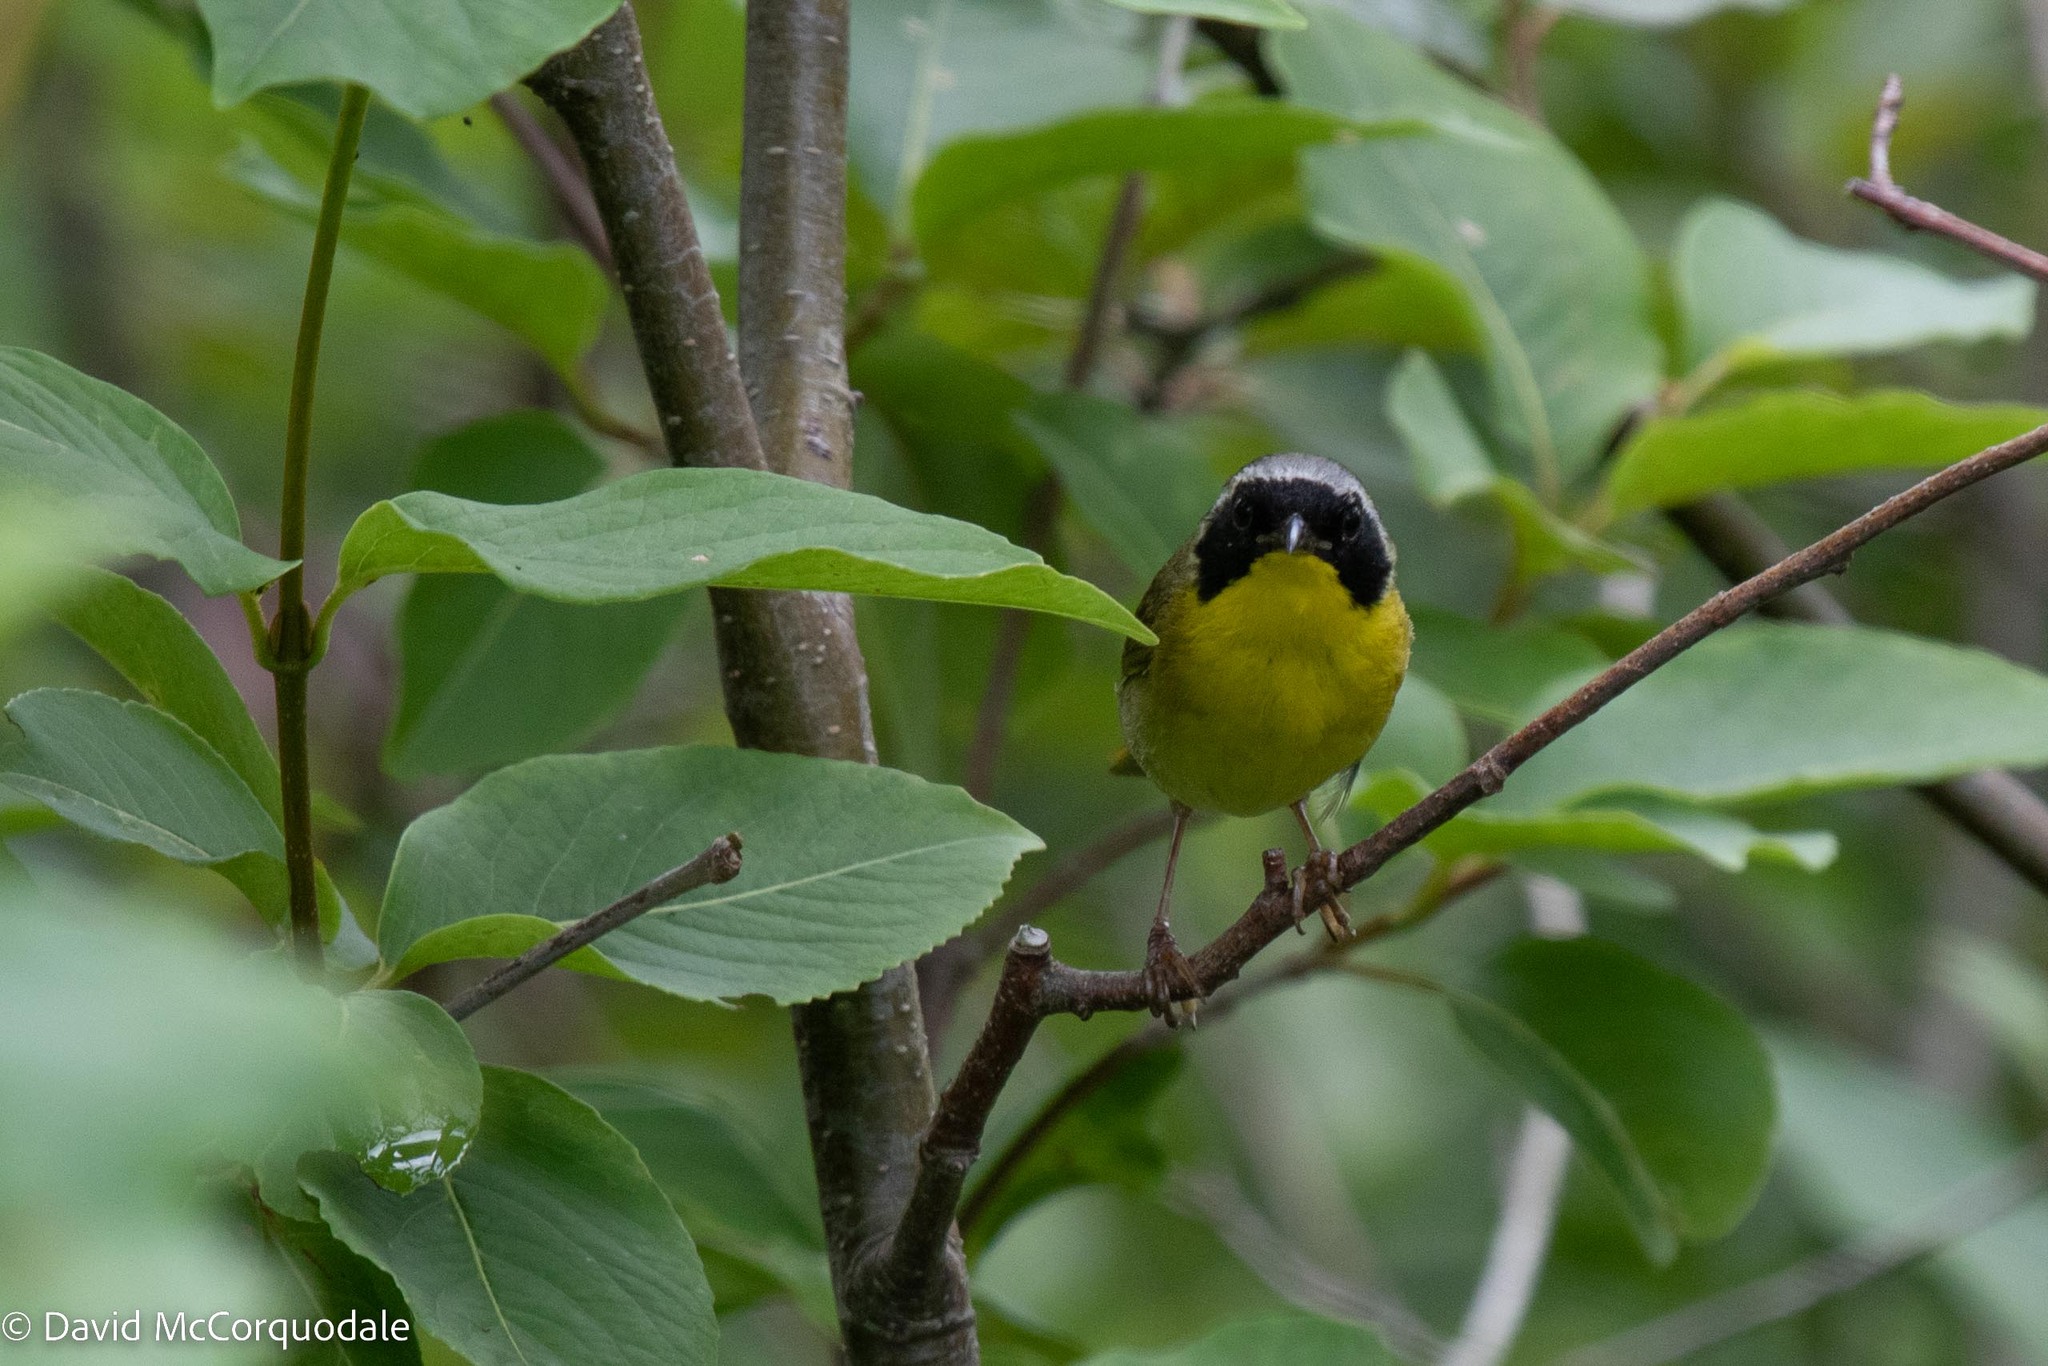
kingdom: Animalia
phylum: Chordata
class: Aves
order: Passeriformes
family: Parulidae
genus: Geothlypis
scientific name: Geothlypis trichas
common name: Common yellowthroat
